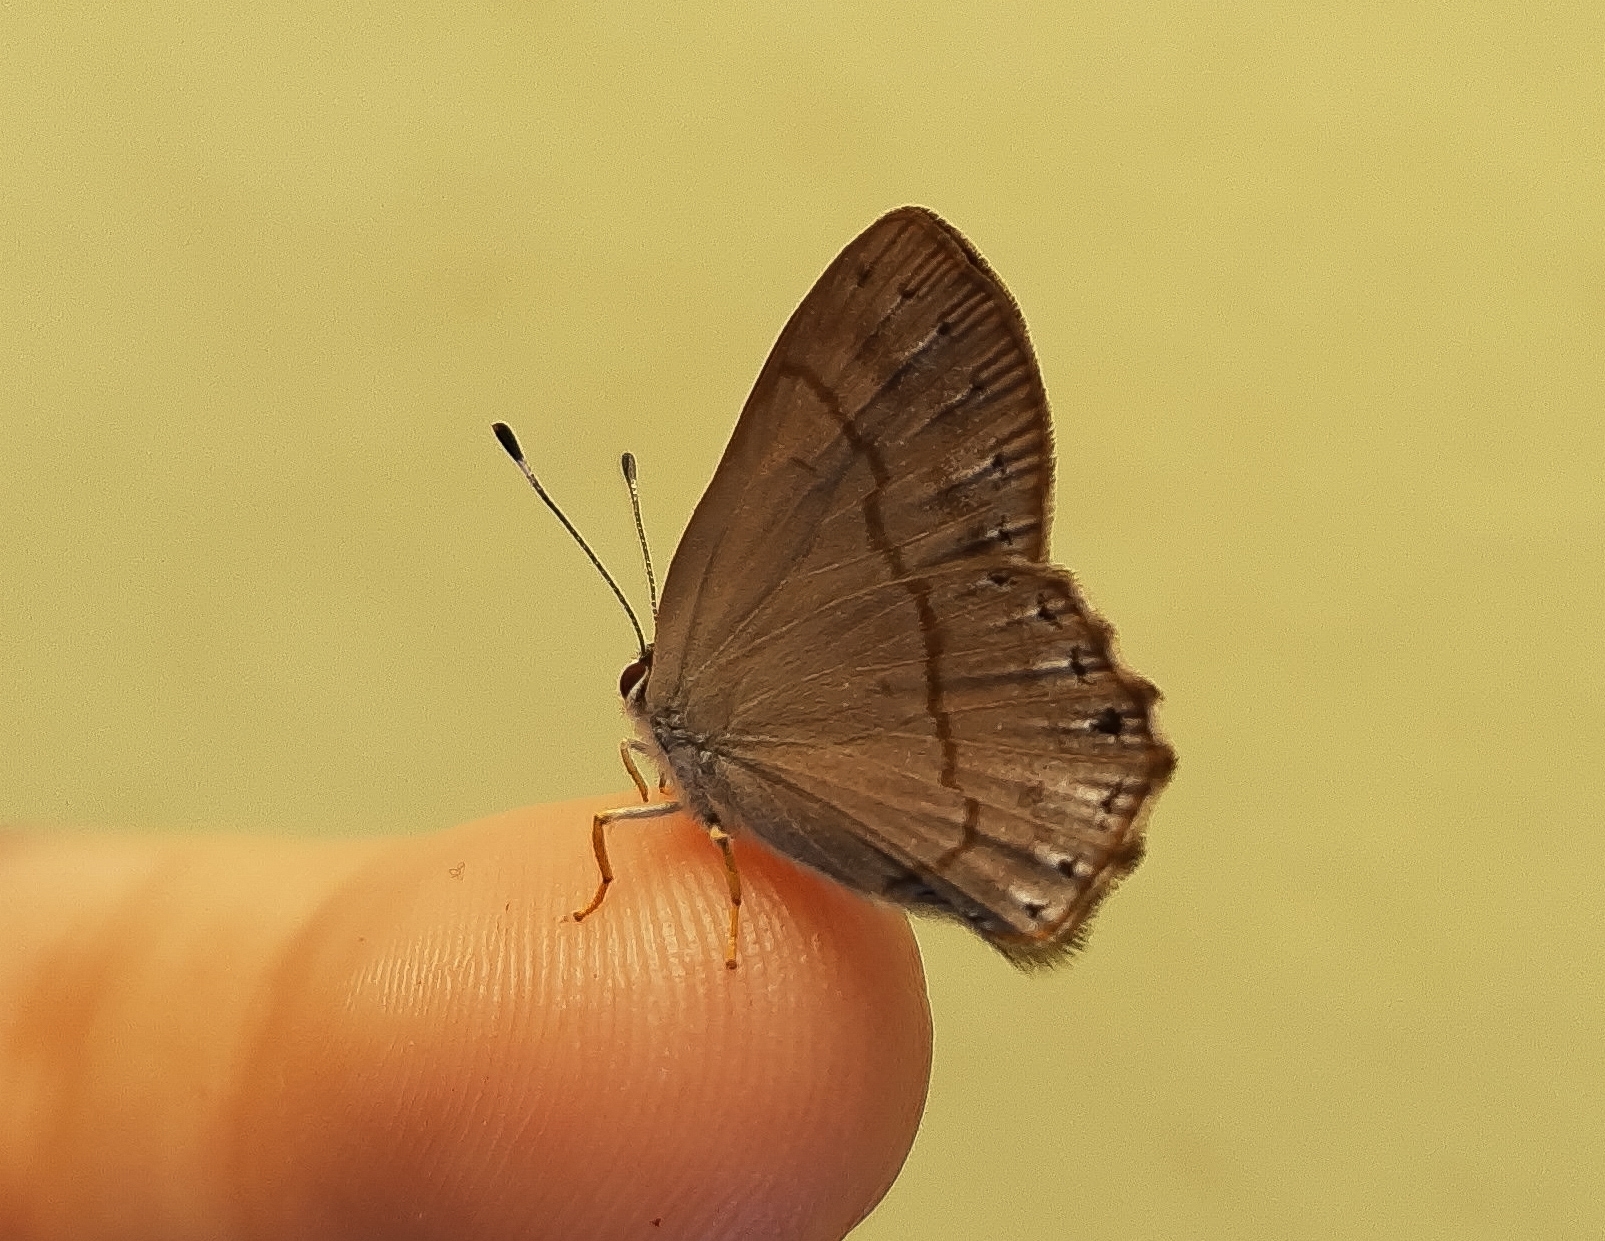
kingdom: Animalia
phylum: Arthropoda
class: Insecta
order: Lepidoptera
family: Lycaenidae
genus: Euselasia
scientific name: Euselasia euploea
